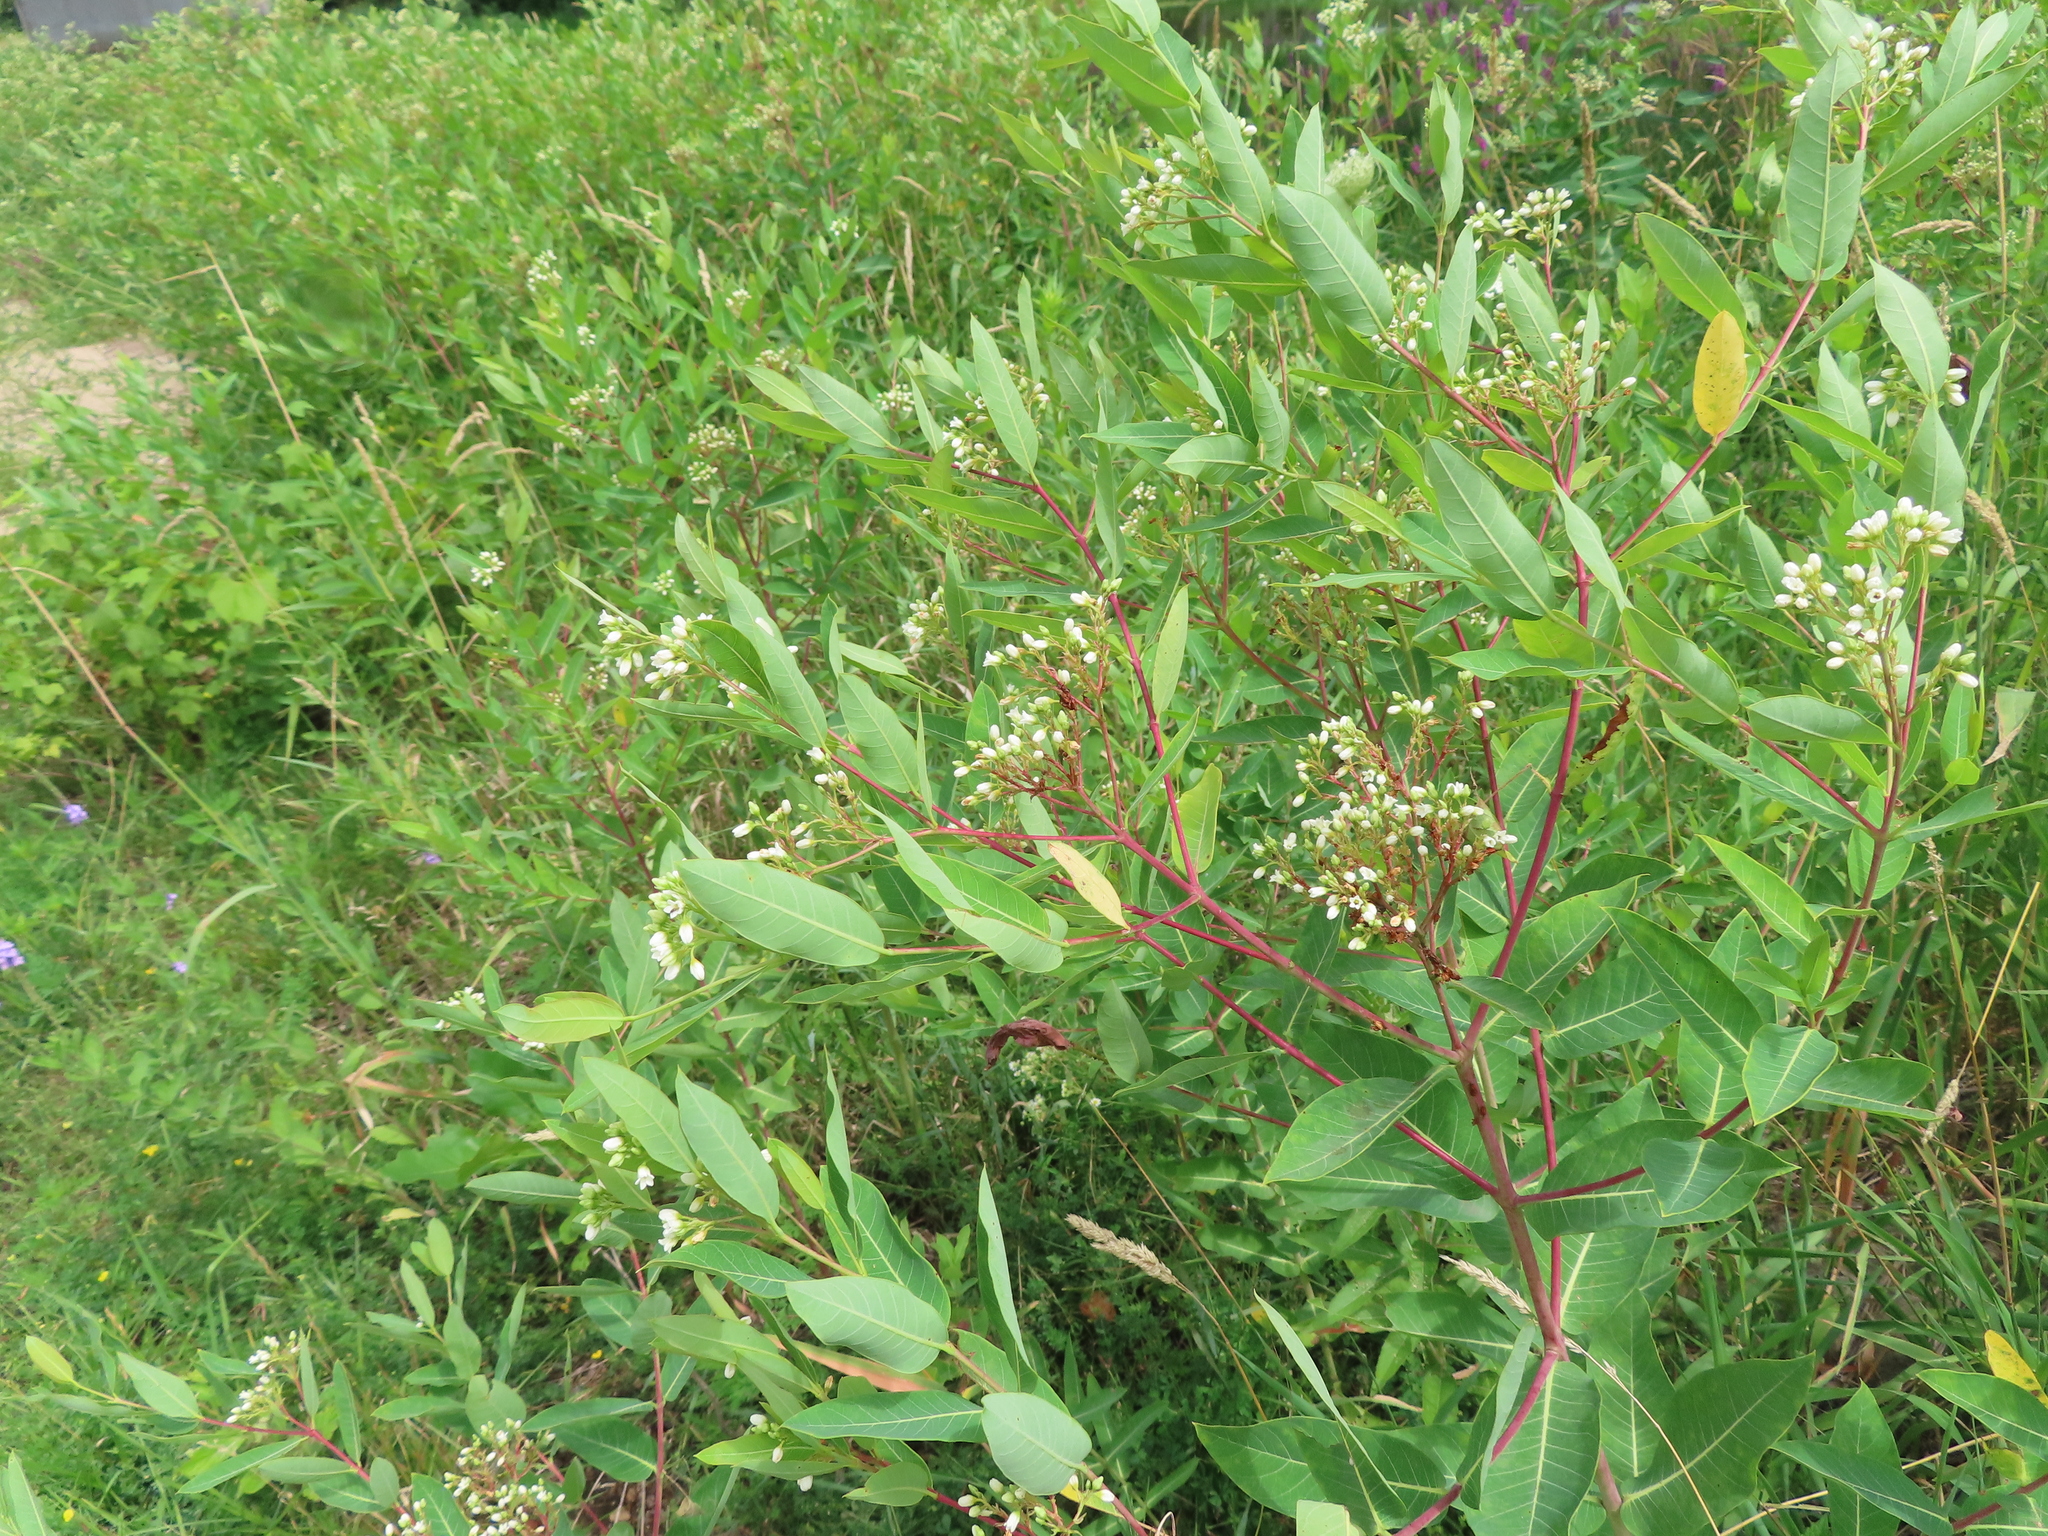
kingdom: Plantae
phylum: Tracheophyta
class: Magnoliopsida
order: Gentianales
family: Apocynaceae
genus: Apocynum
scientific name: Apocynum cannabinum
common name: Hemp dogbane
